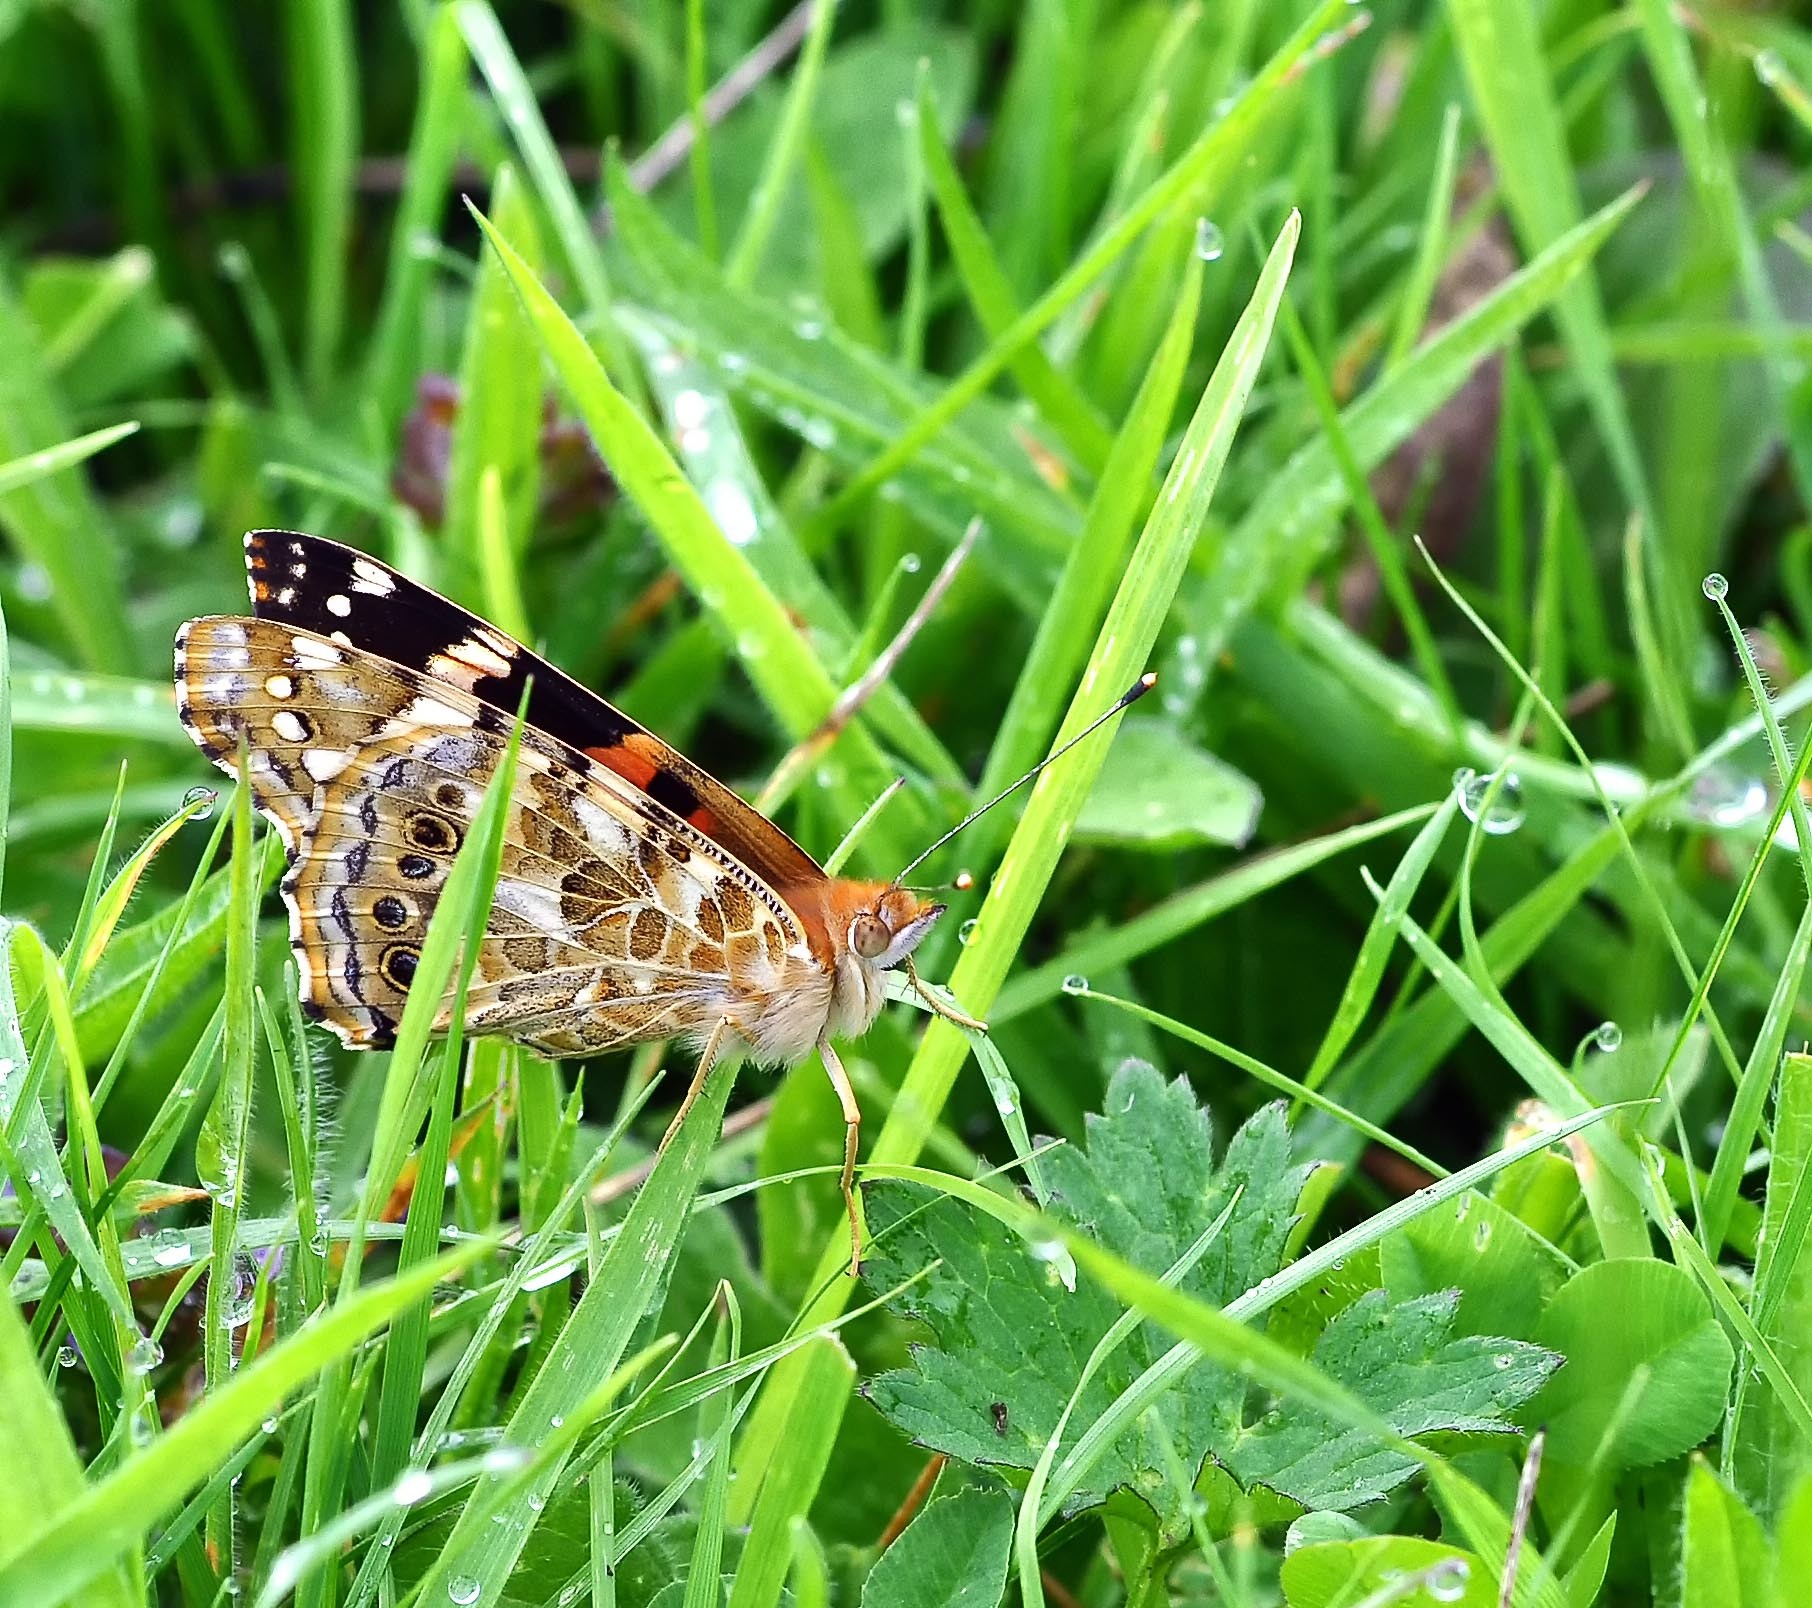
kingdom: Animalia
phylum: Arthropoda
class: Insecta
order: Lepidoptera
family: Nymphalidae
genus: Vanessa
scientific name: Vanessa cardui
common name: Painted lady
